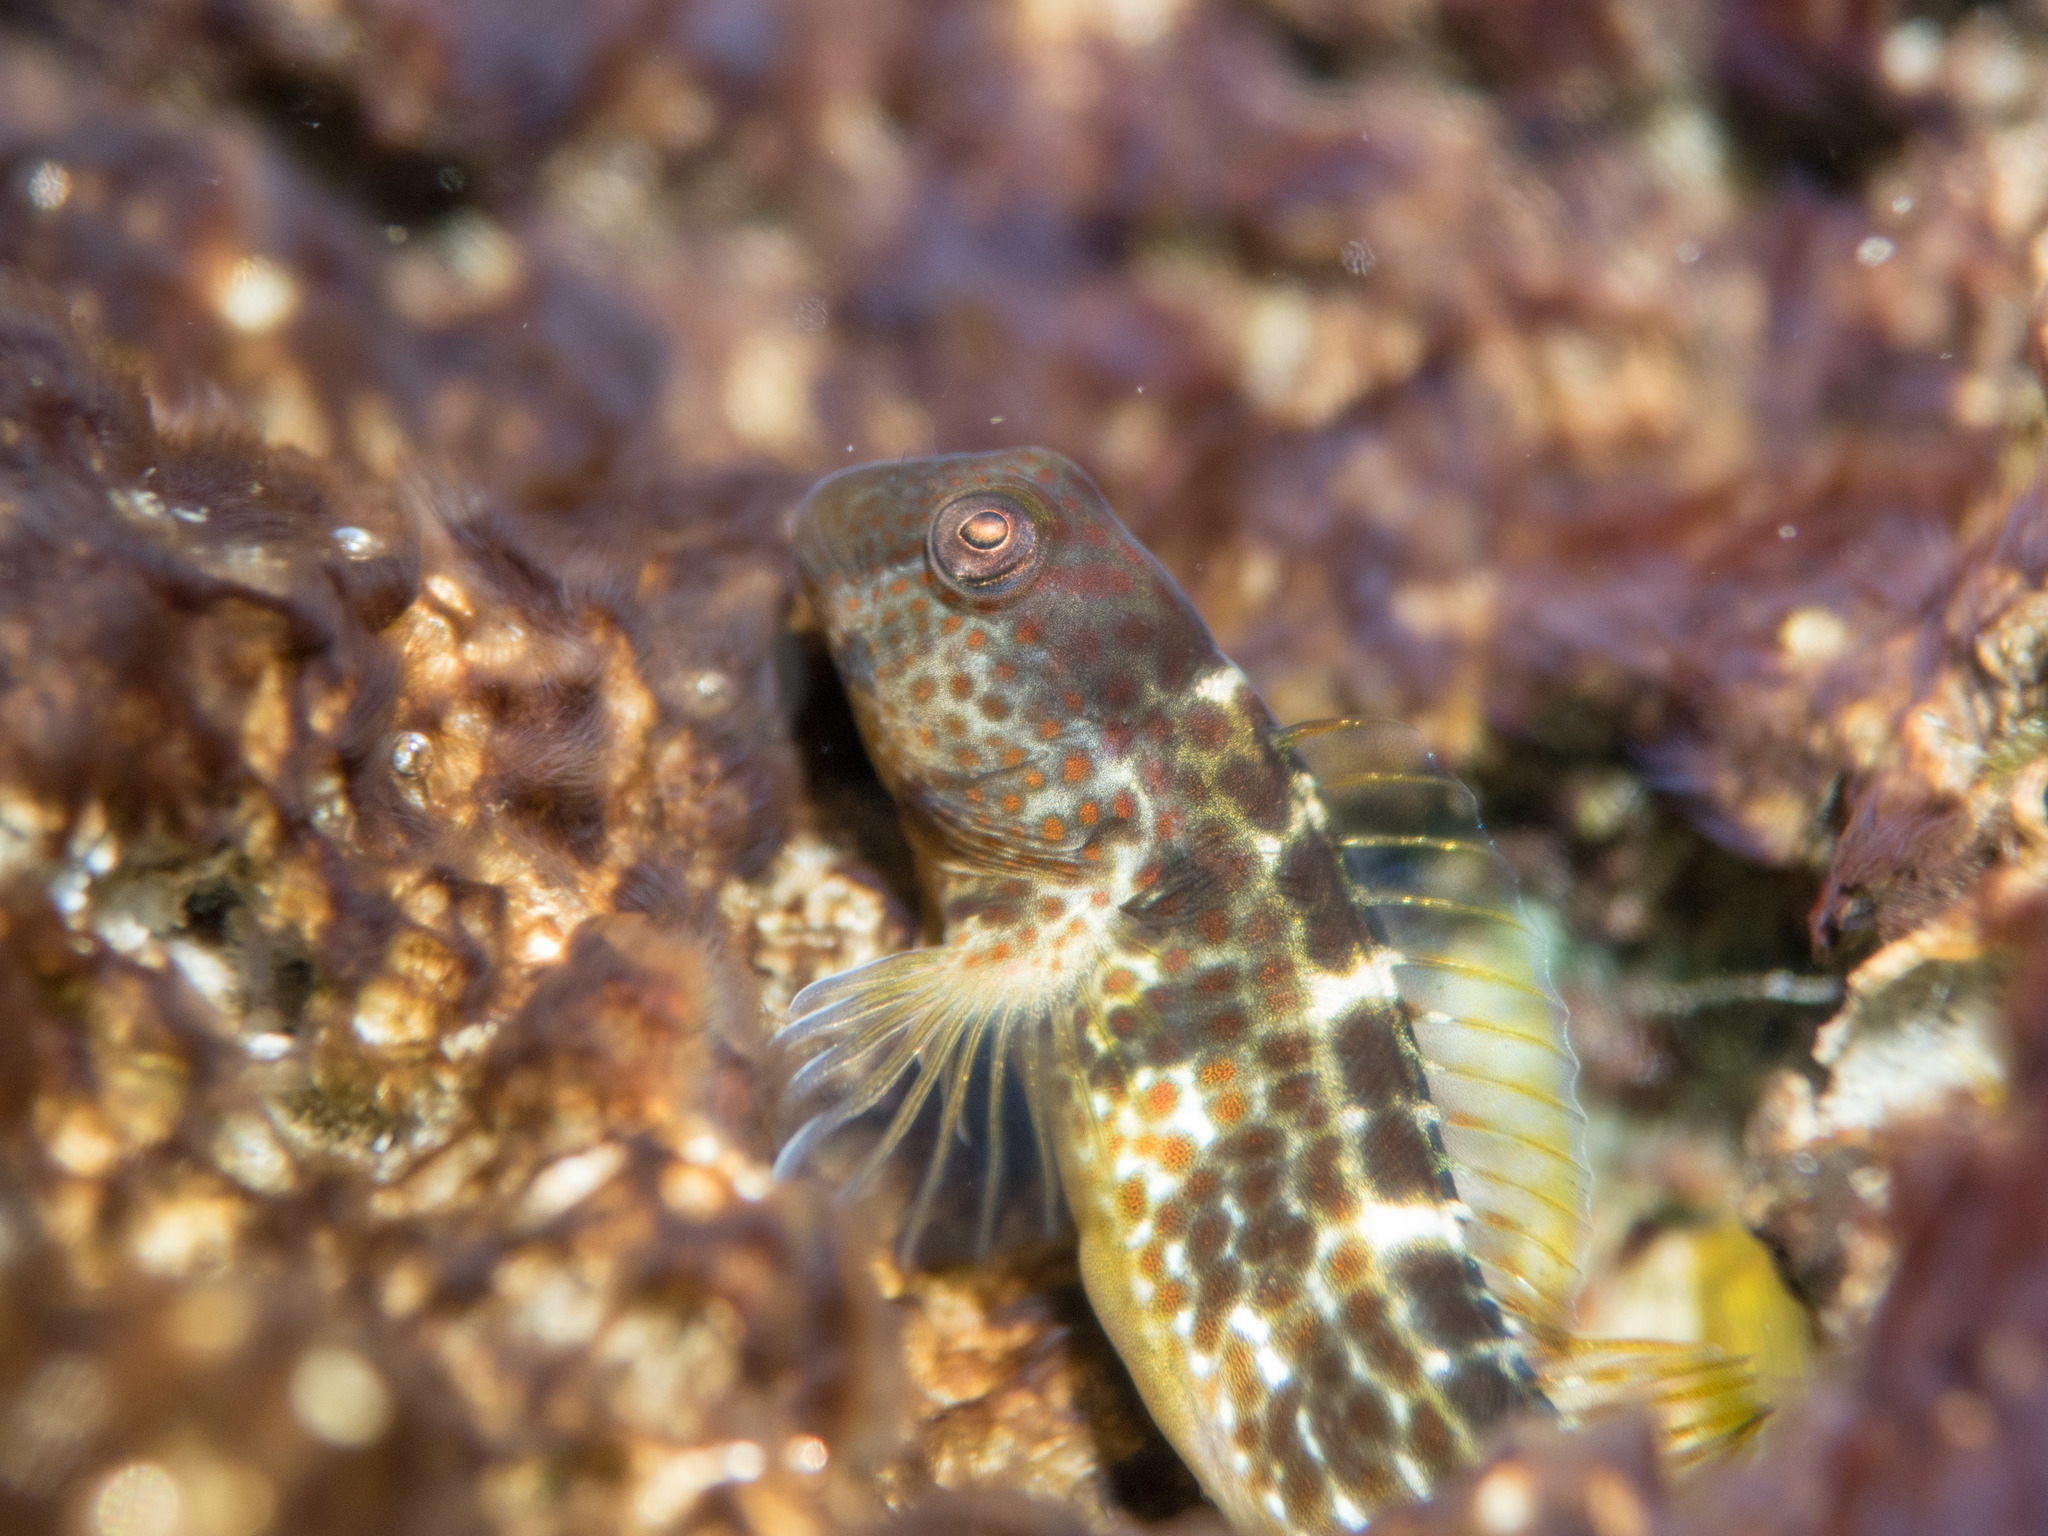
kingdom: Animalia
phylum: Chordata
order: Perciformes
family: Blenniidae
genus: Microlipophrys
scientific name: Microlipophrys canevae
